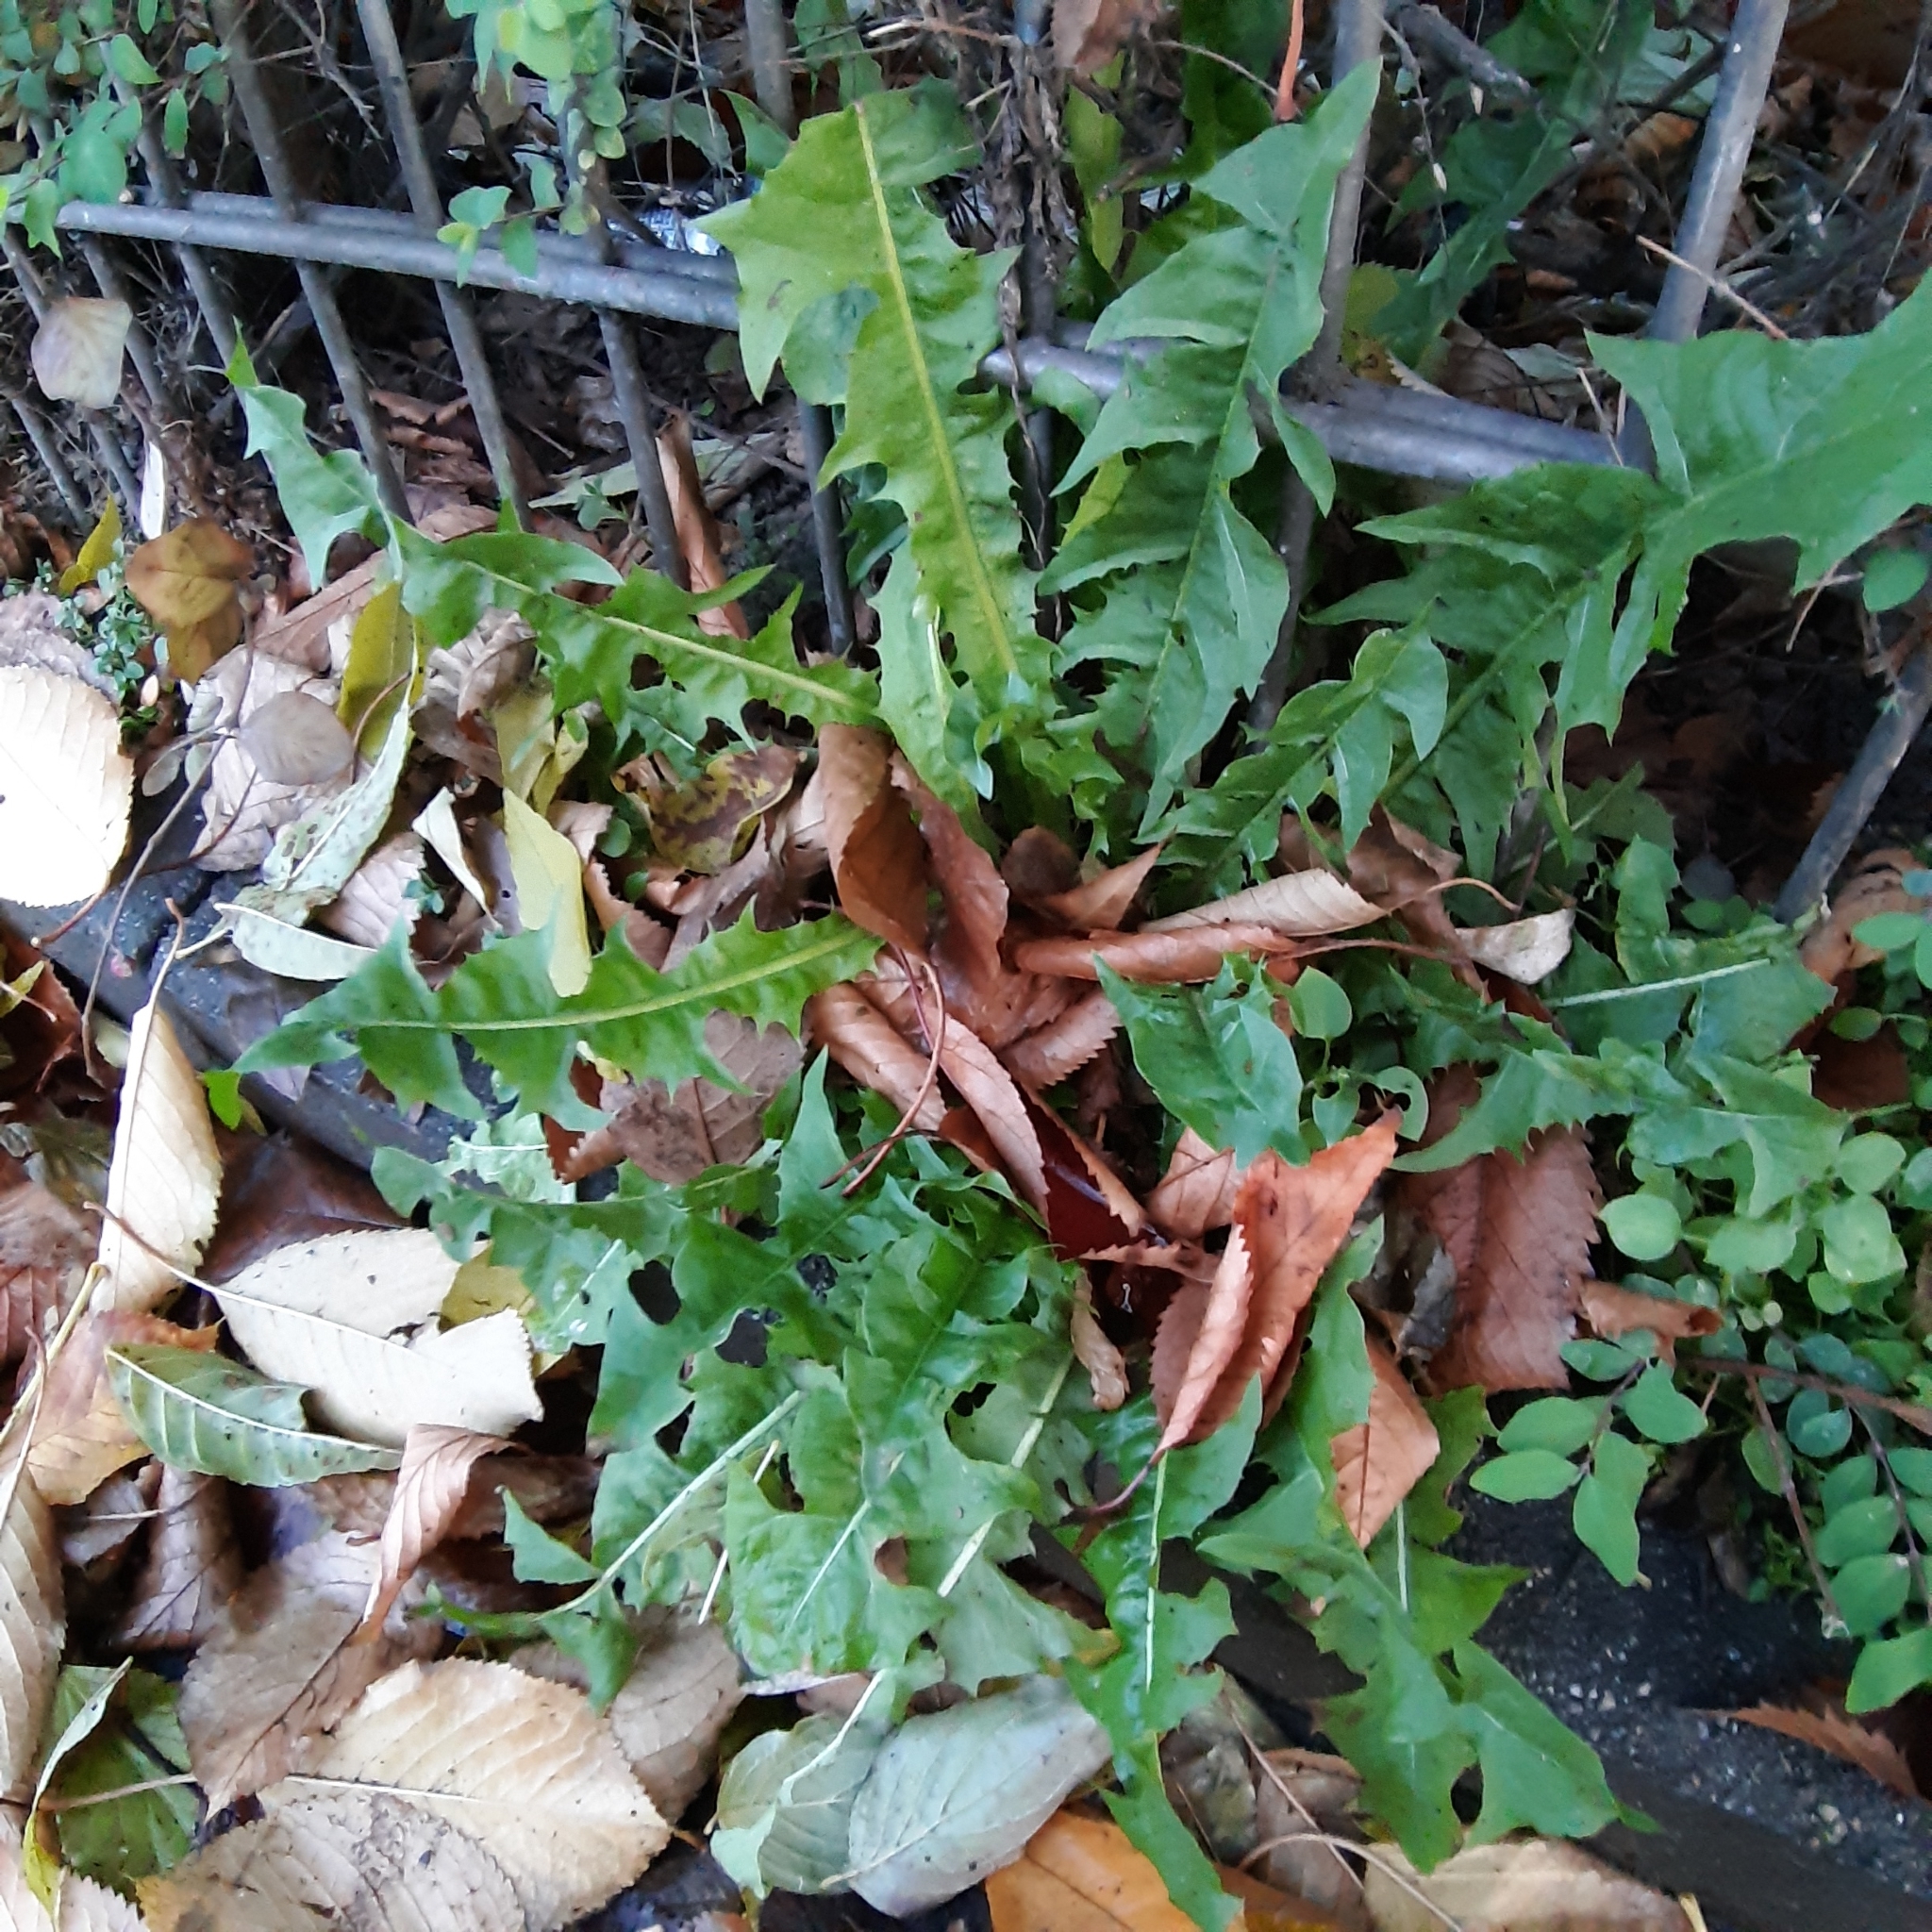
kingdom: Plantae
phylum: Tracheophyta
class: Magnoliopsida
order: Asterales
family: Asteraceae
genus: Taraxacum
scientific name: Taraxacum officinale
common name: Common dandelion
